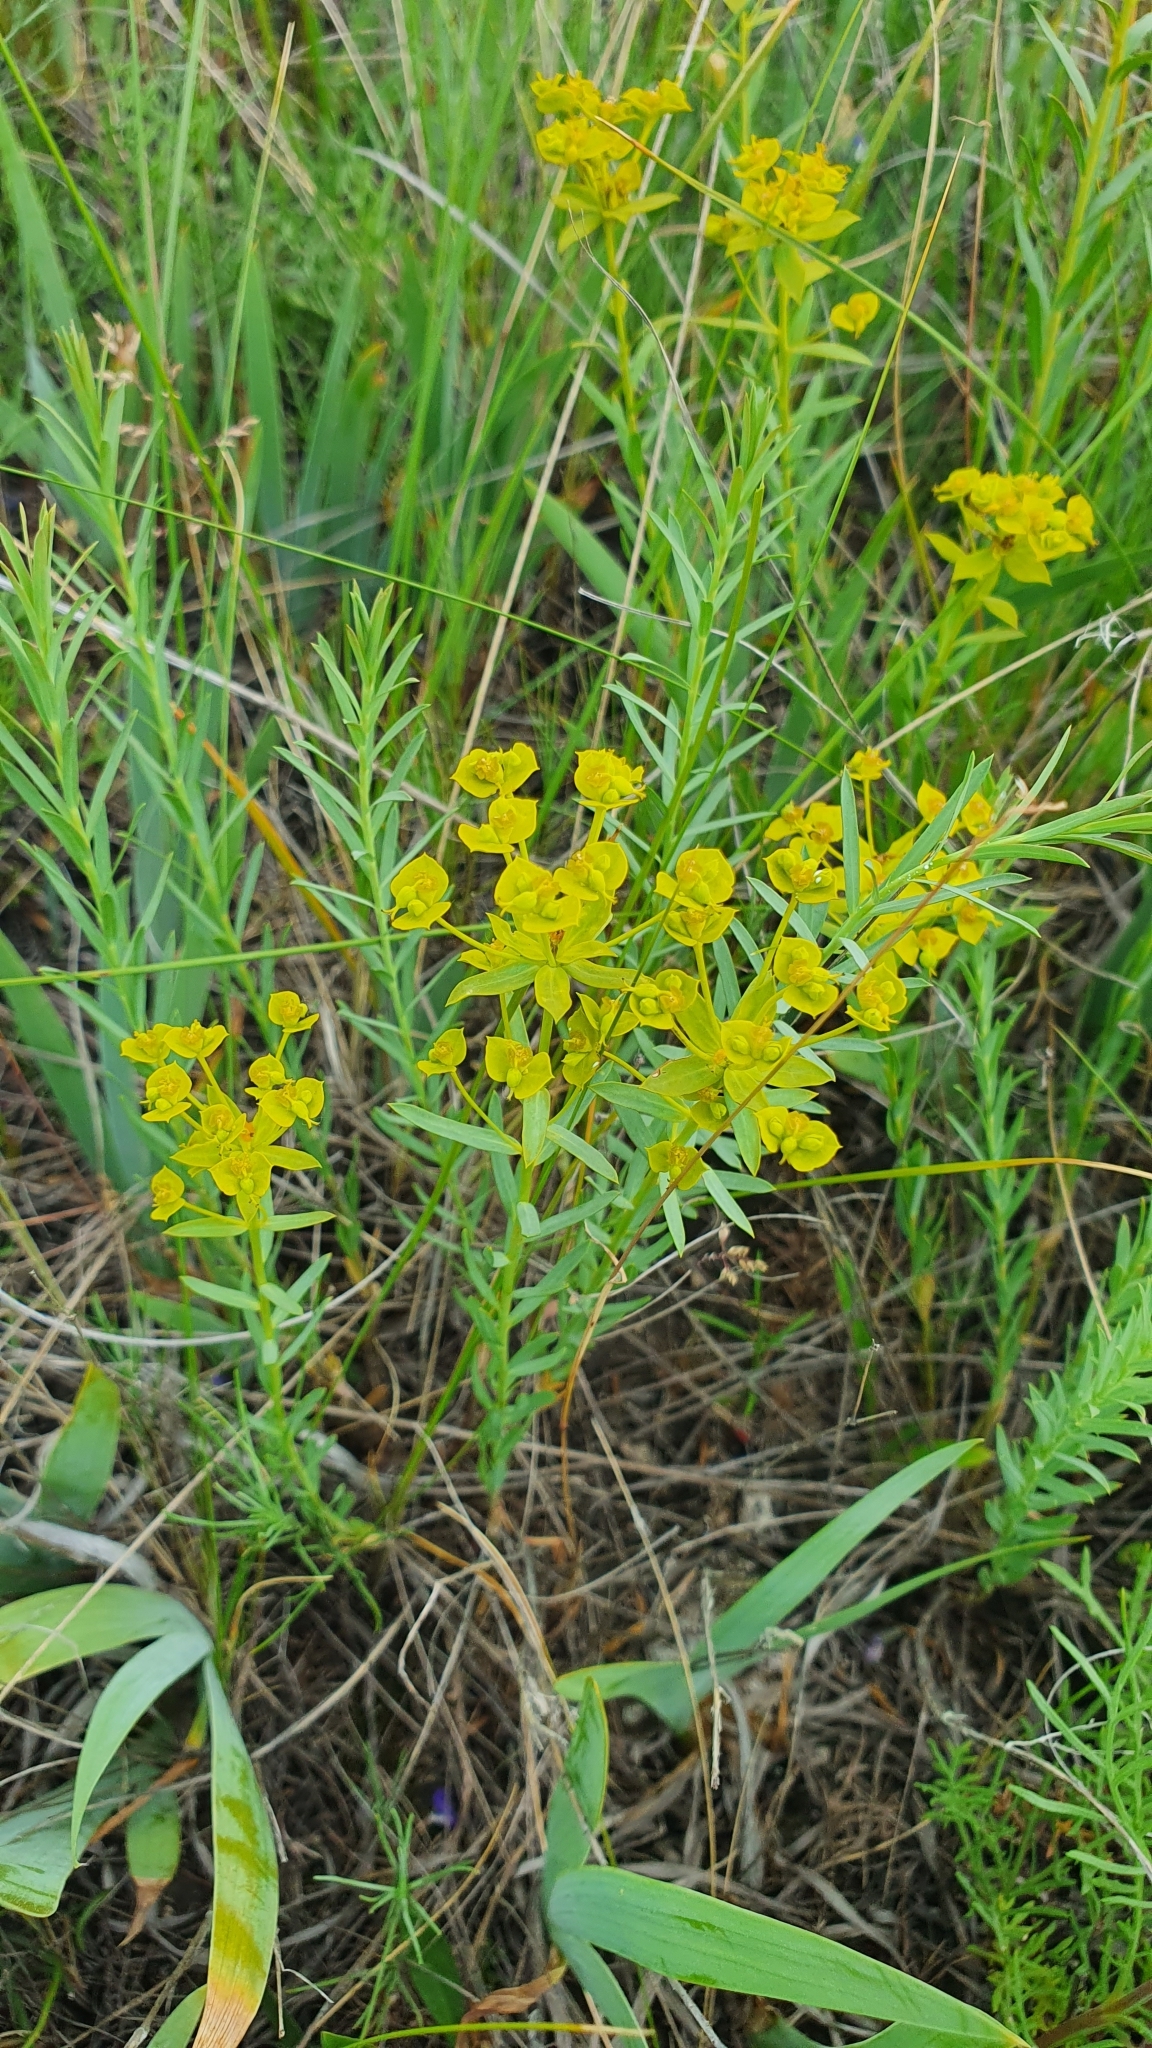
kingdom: Plantae
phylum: Tracheophyta
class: Magnoliopsida
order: Malpighiales
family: Euphorbiaceae
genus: Euphorbia
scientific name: Euphorbia seguieriana
